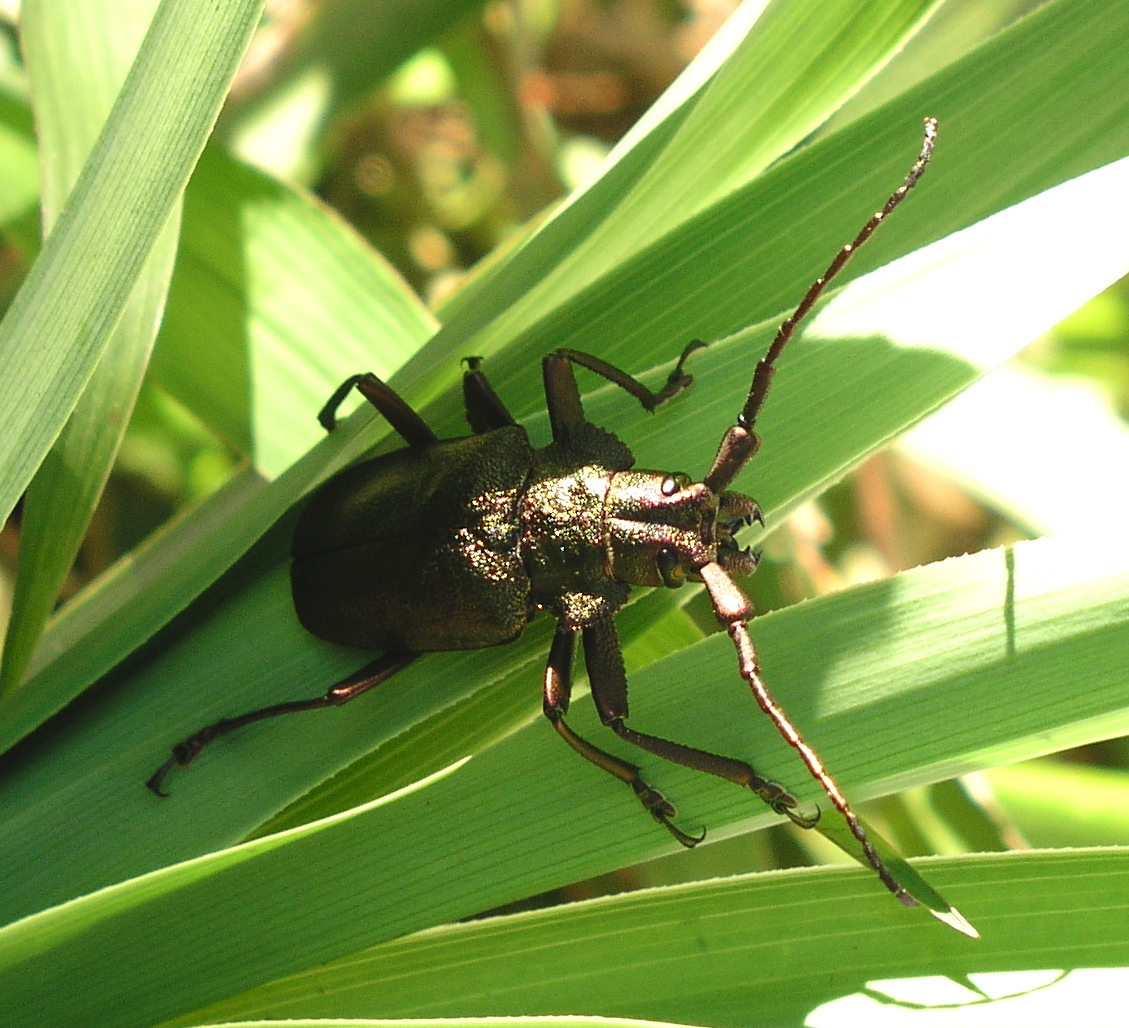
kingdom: Animalia
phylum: Arthropoda
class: Insecta
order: Coleoptera
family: Cerambycidae
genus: Pyrodes
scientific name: Pyrodes nitidus
